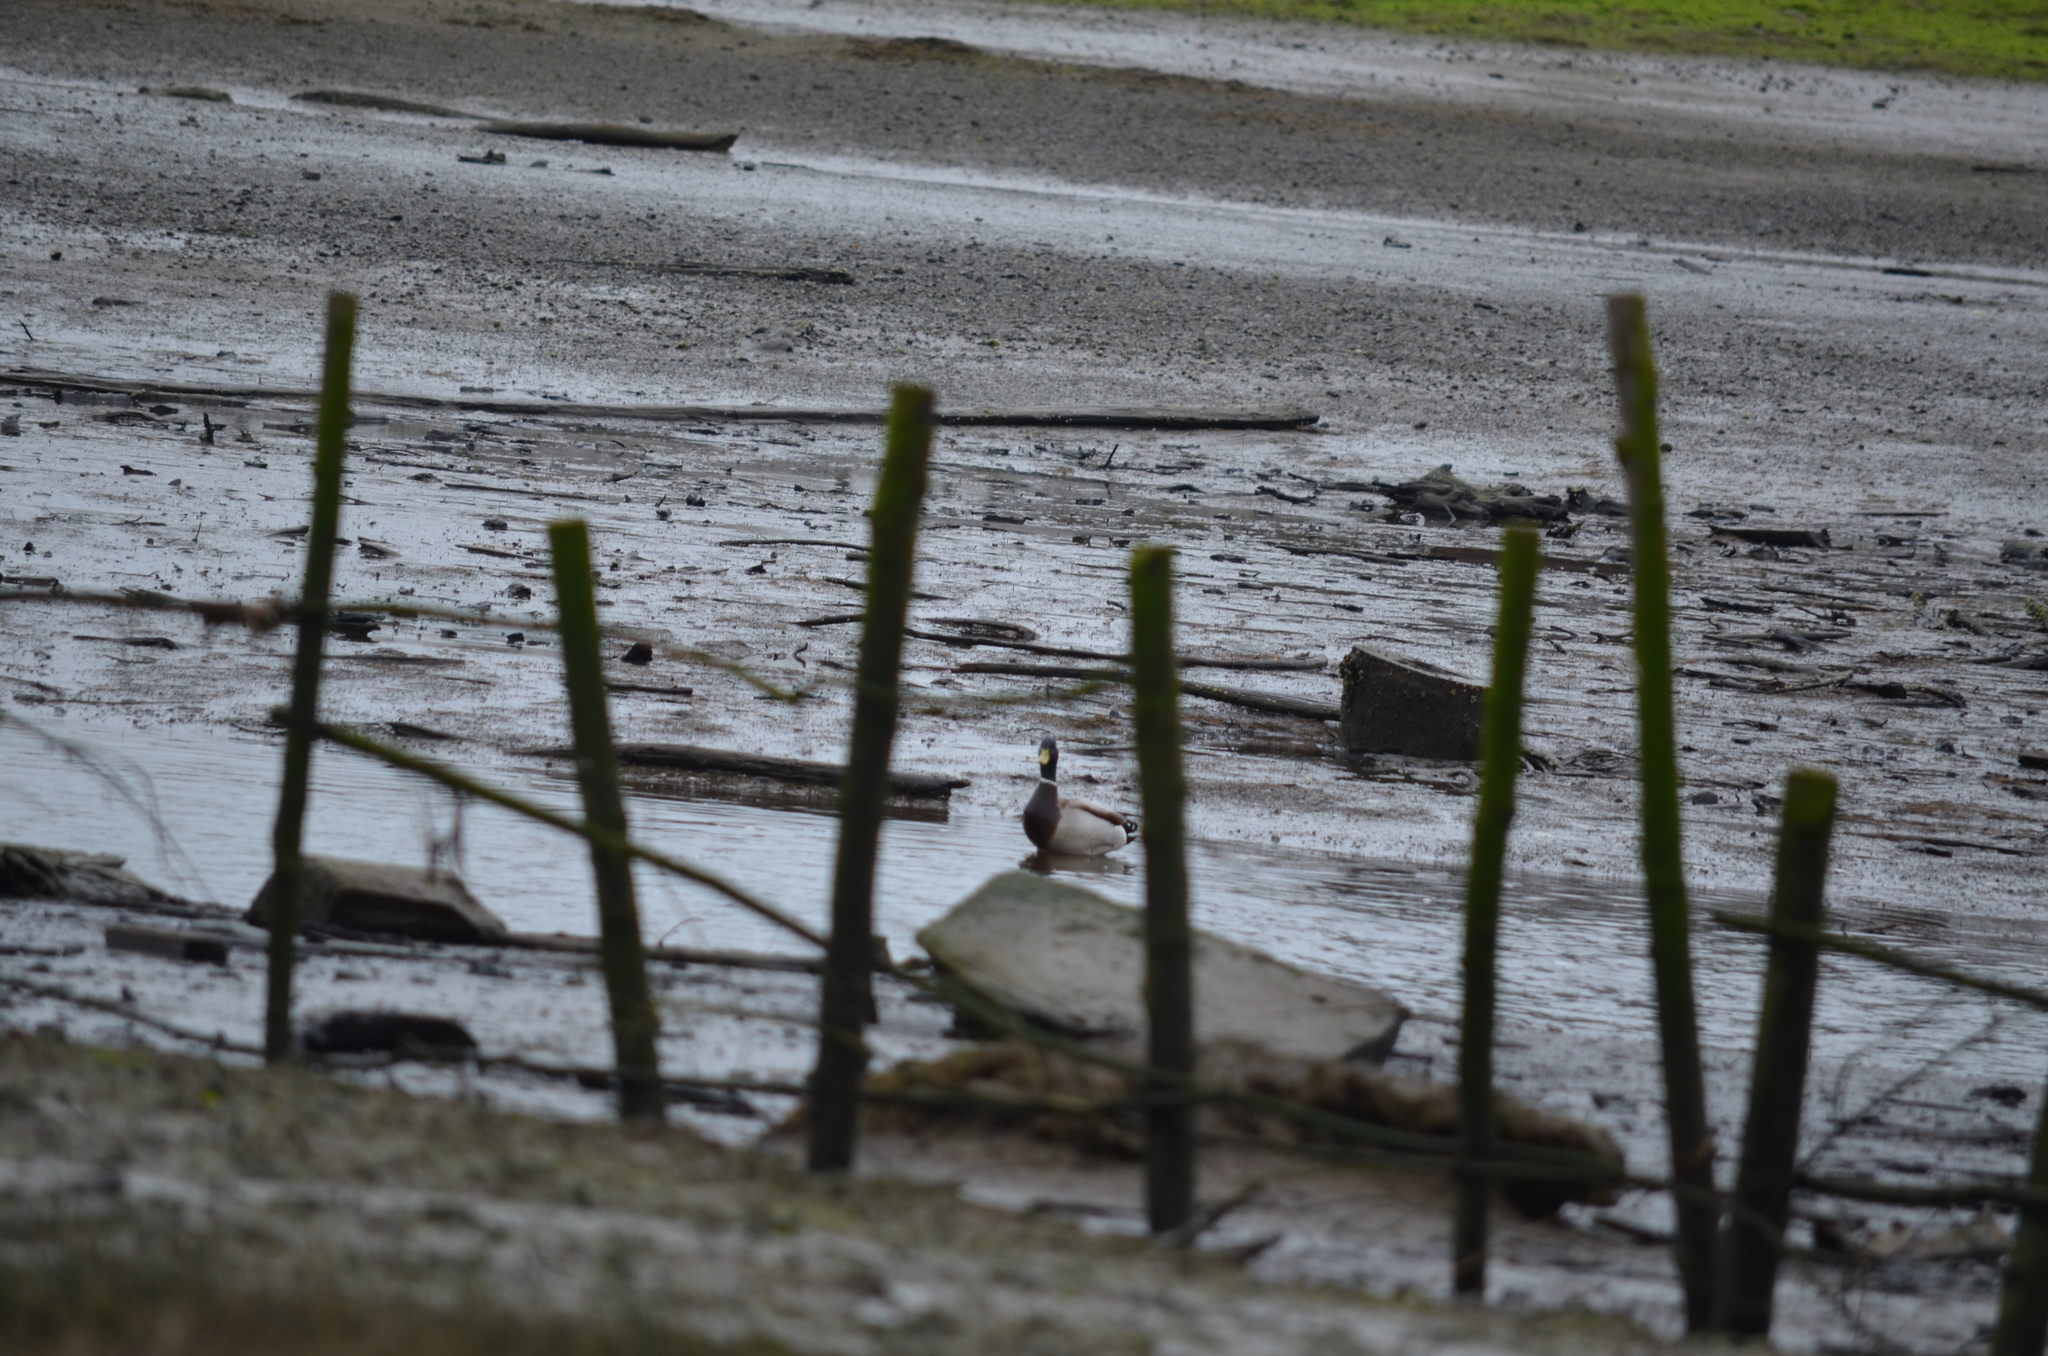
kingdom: Animalia
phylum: Chordata
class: Aves
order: Anseriformes
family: Anatidae
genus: Anas
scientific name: Anas platyrhynchos
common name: Mallard
